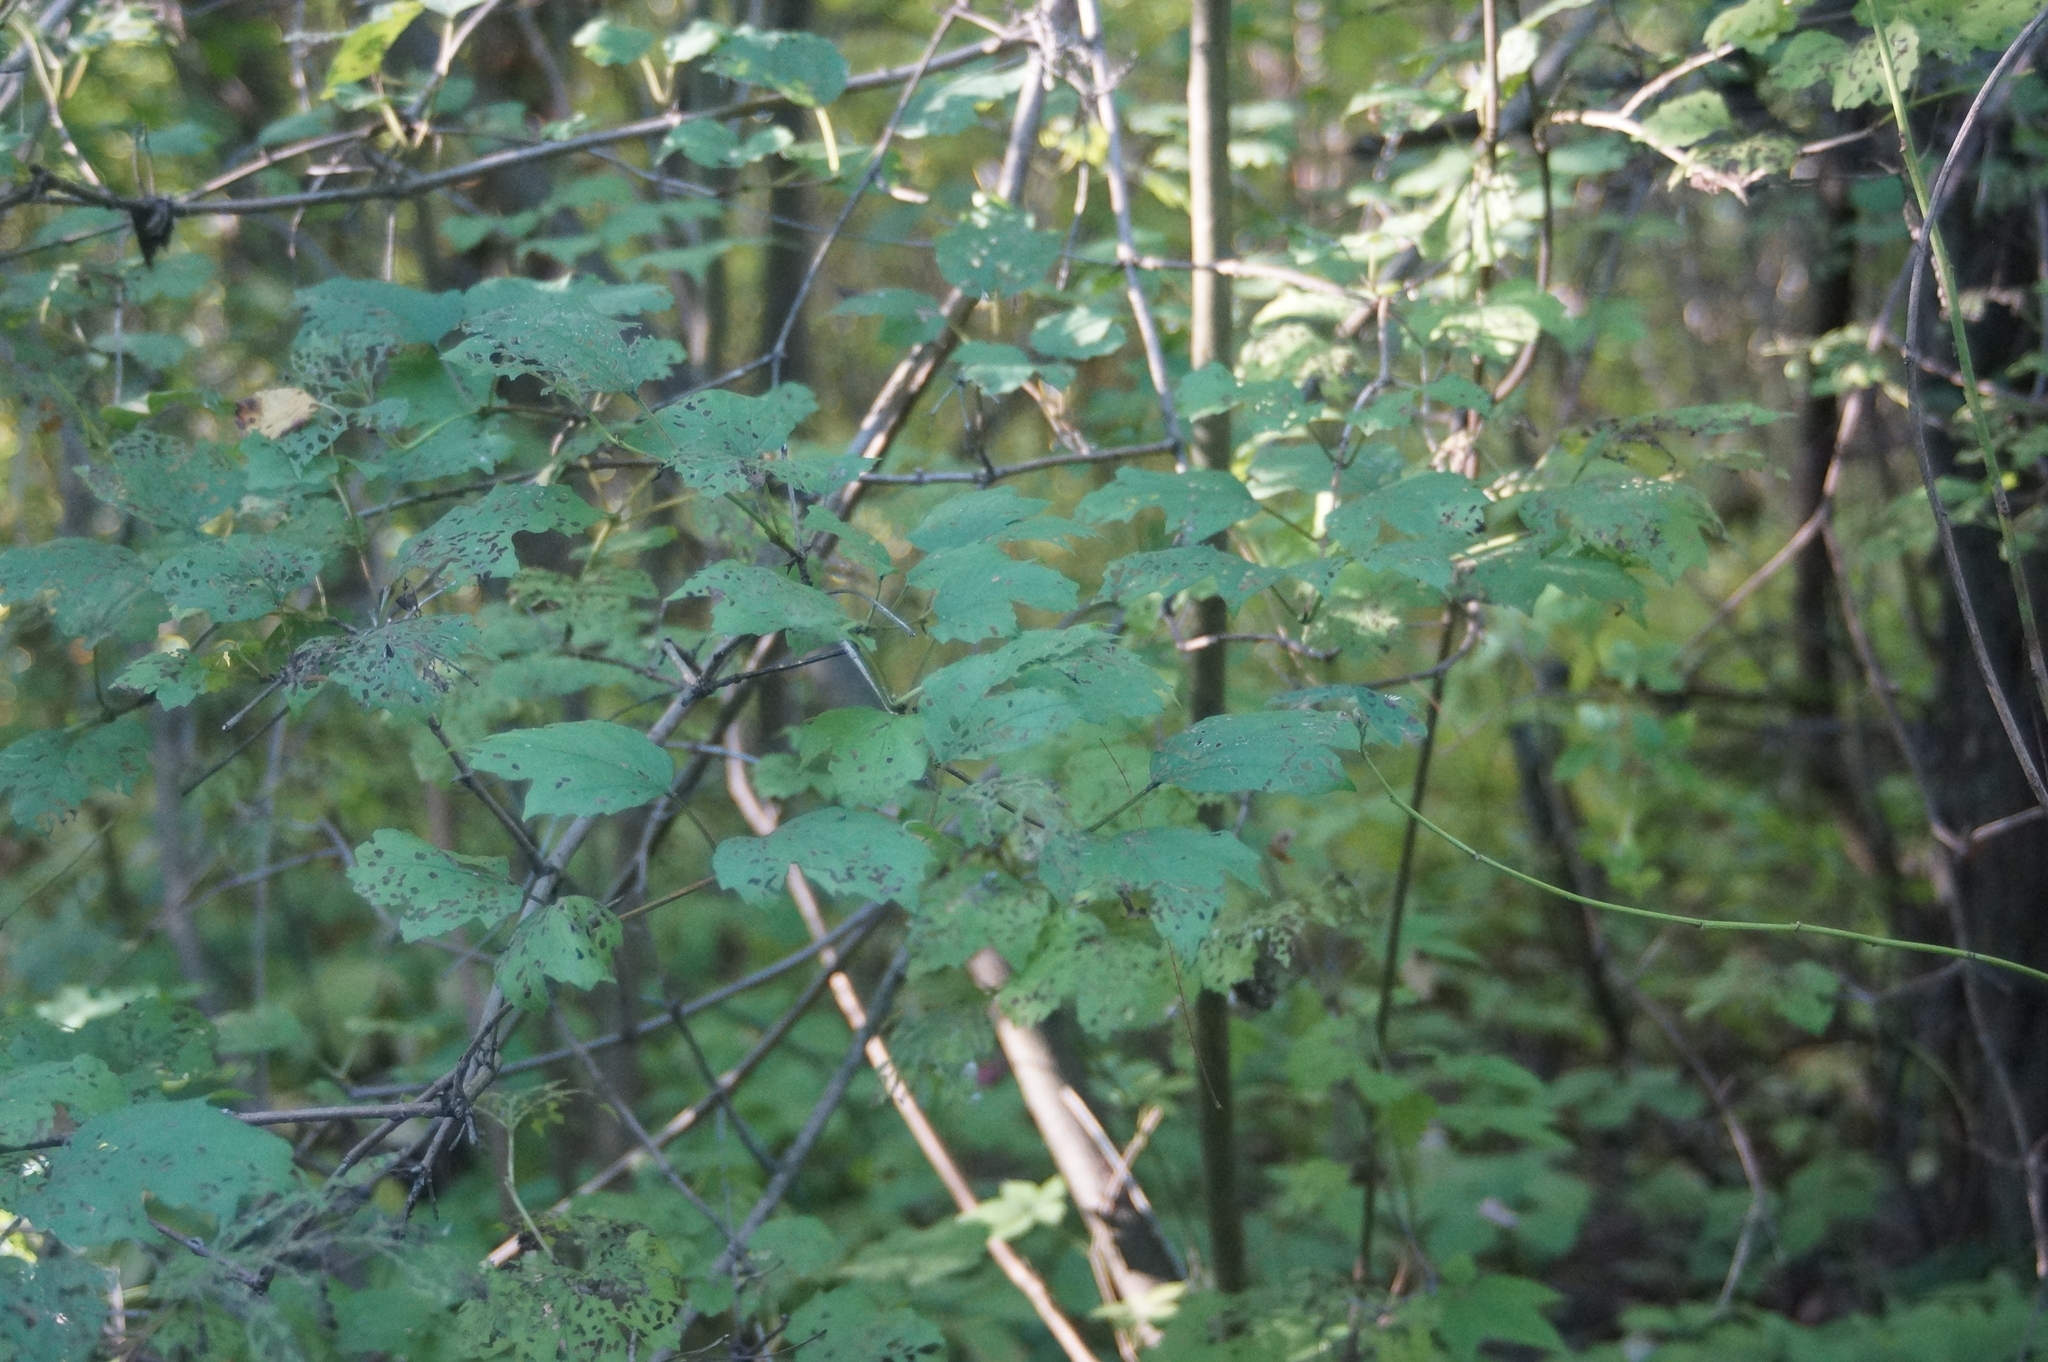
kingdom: Plantae
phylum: Tracheophyta
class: Magnoliopsida
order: Dipsacales
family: Viburnaceae
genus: Viburnum
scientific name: Viburnum opulus
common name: Guelder-rose
